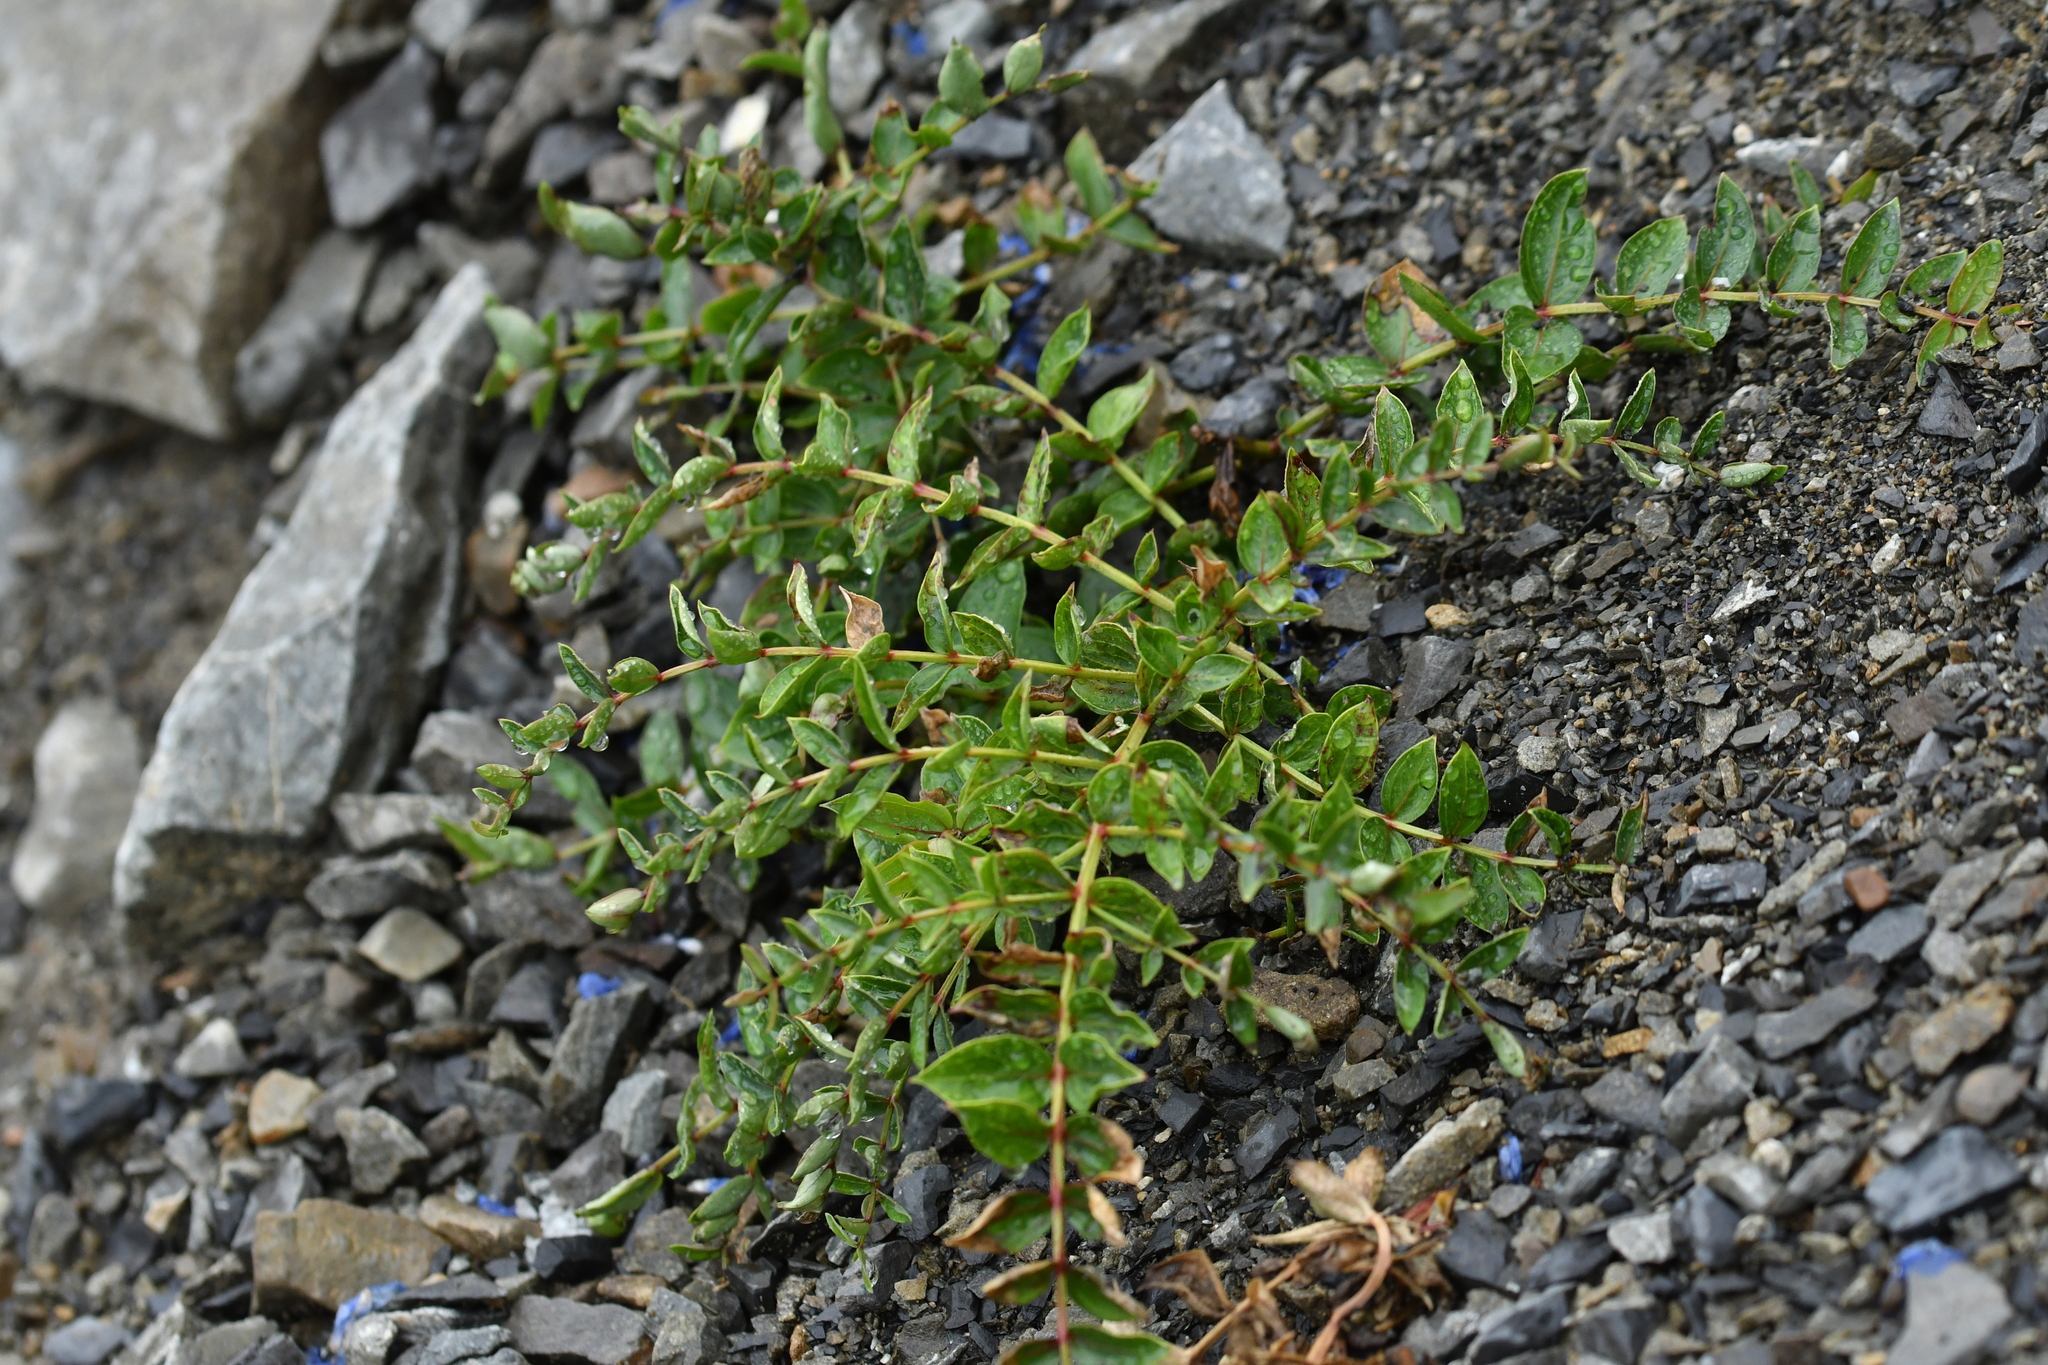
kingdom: Plantae
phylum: Tracheophyta
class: Magnoliopsida
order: Cucurbitales
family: Coriariaceae
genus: Coriaria
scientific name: Coriaria sarmentosa
